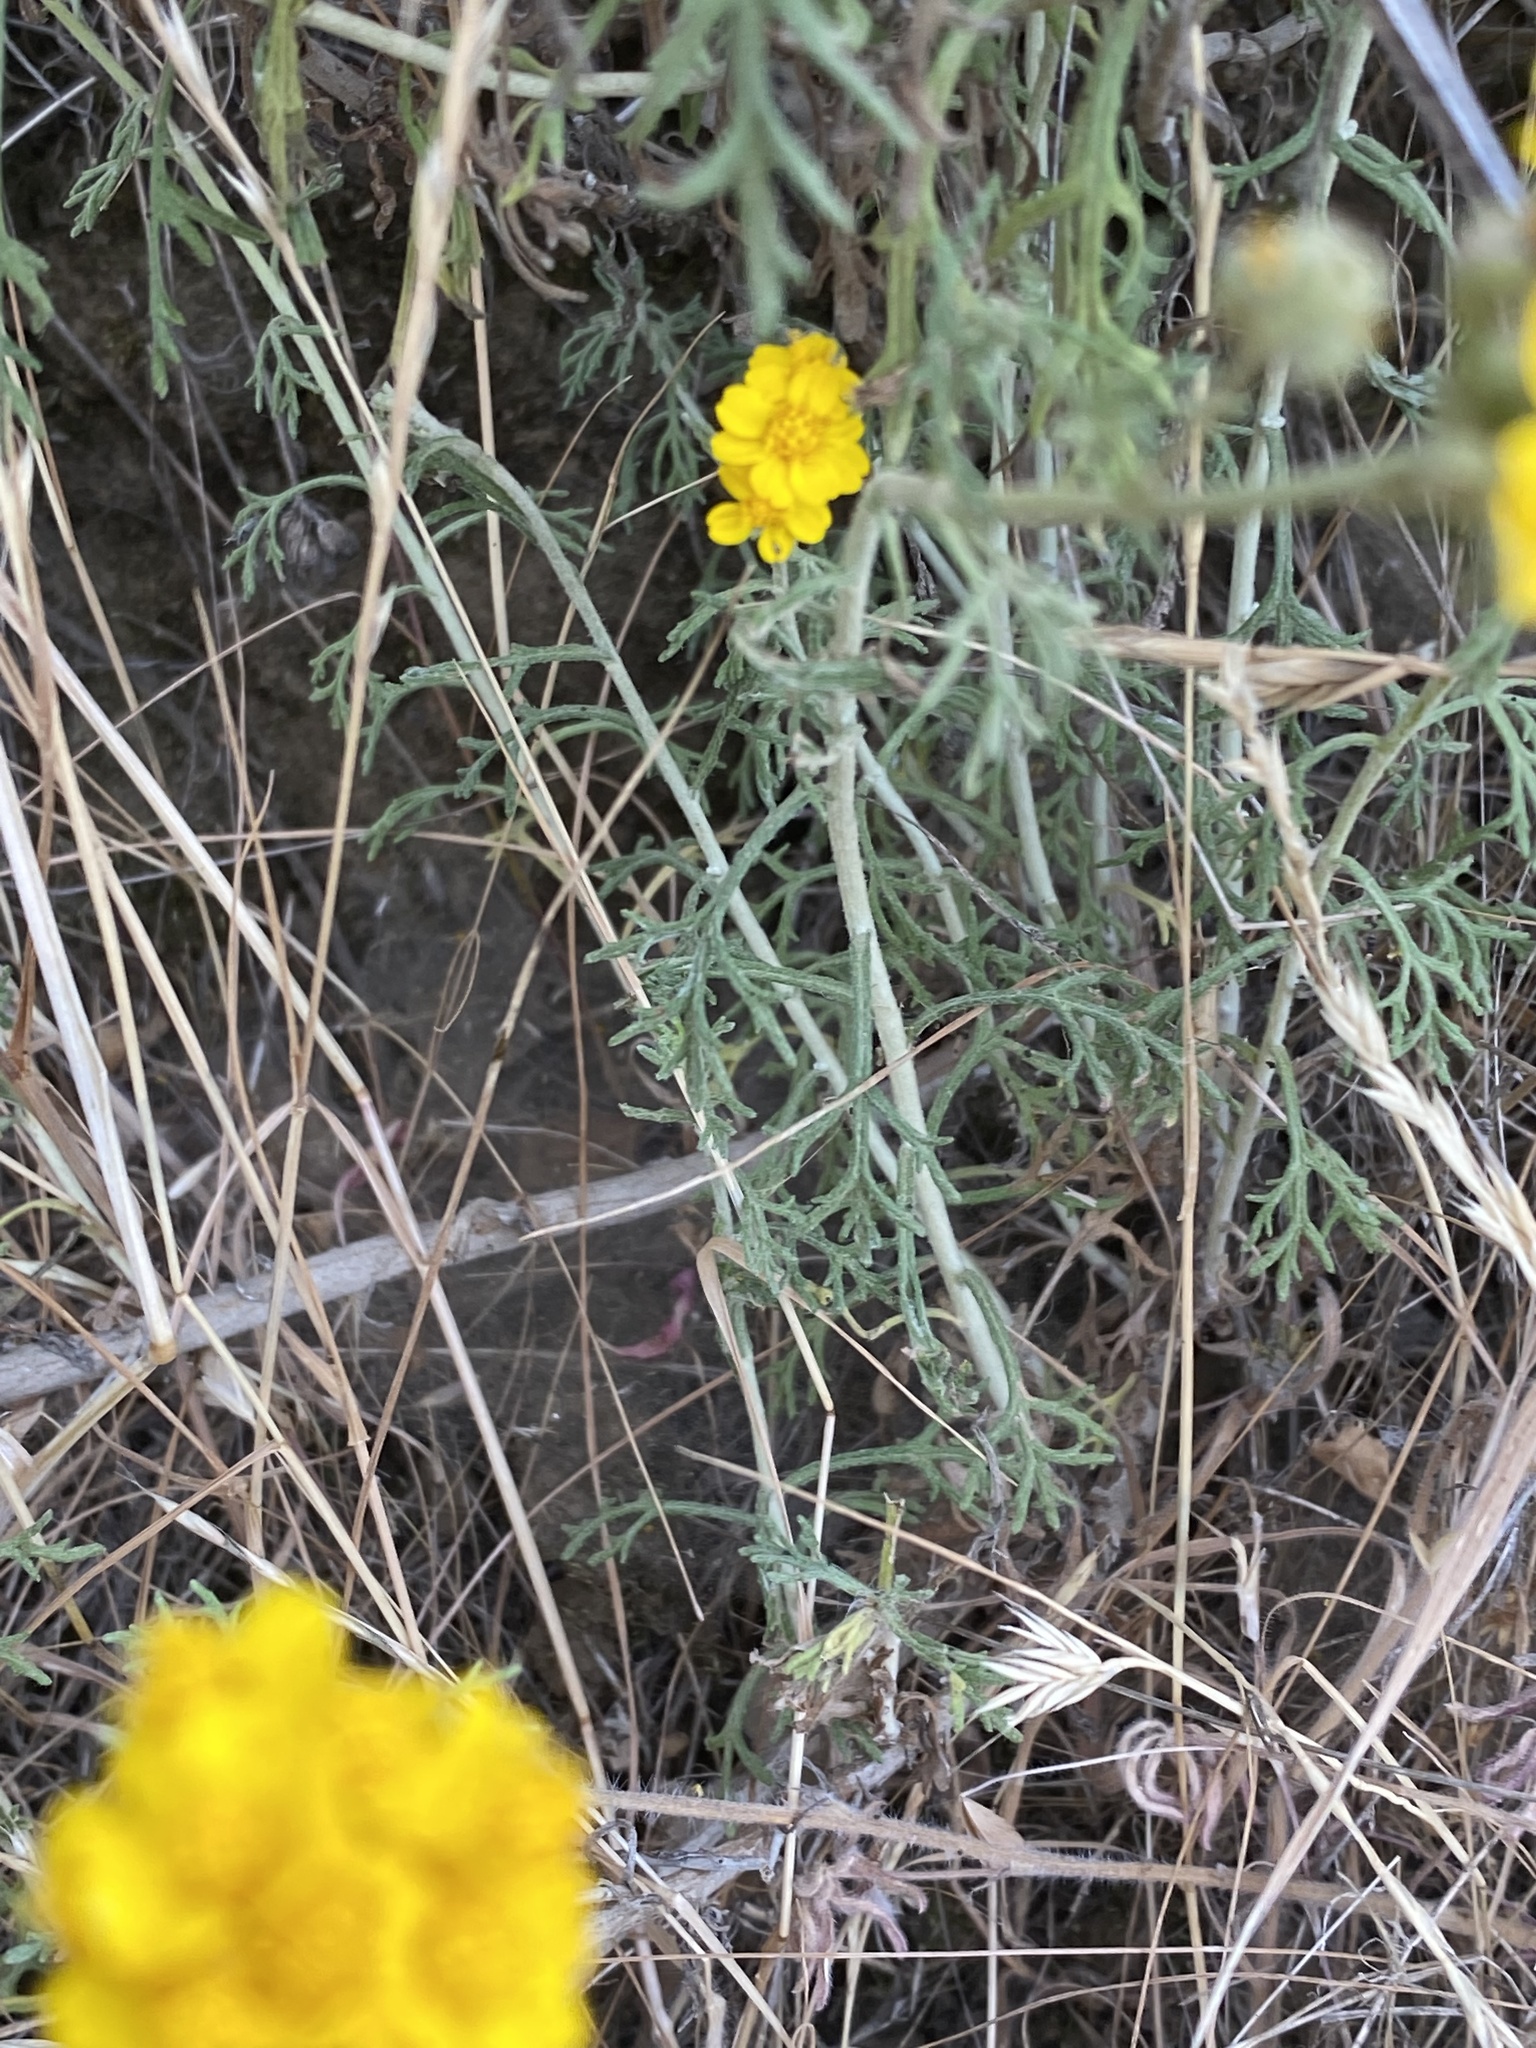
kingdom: Plantae
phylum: Tracheophyta
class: Magnoliopsida
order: Asterales
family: Asteraceae
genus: Eriophyllum
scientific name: Eriophyllum confertiflorum
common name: Golden-yarrow
